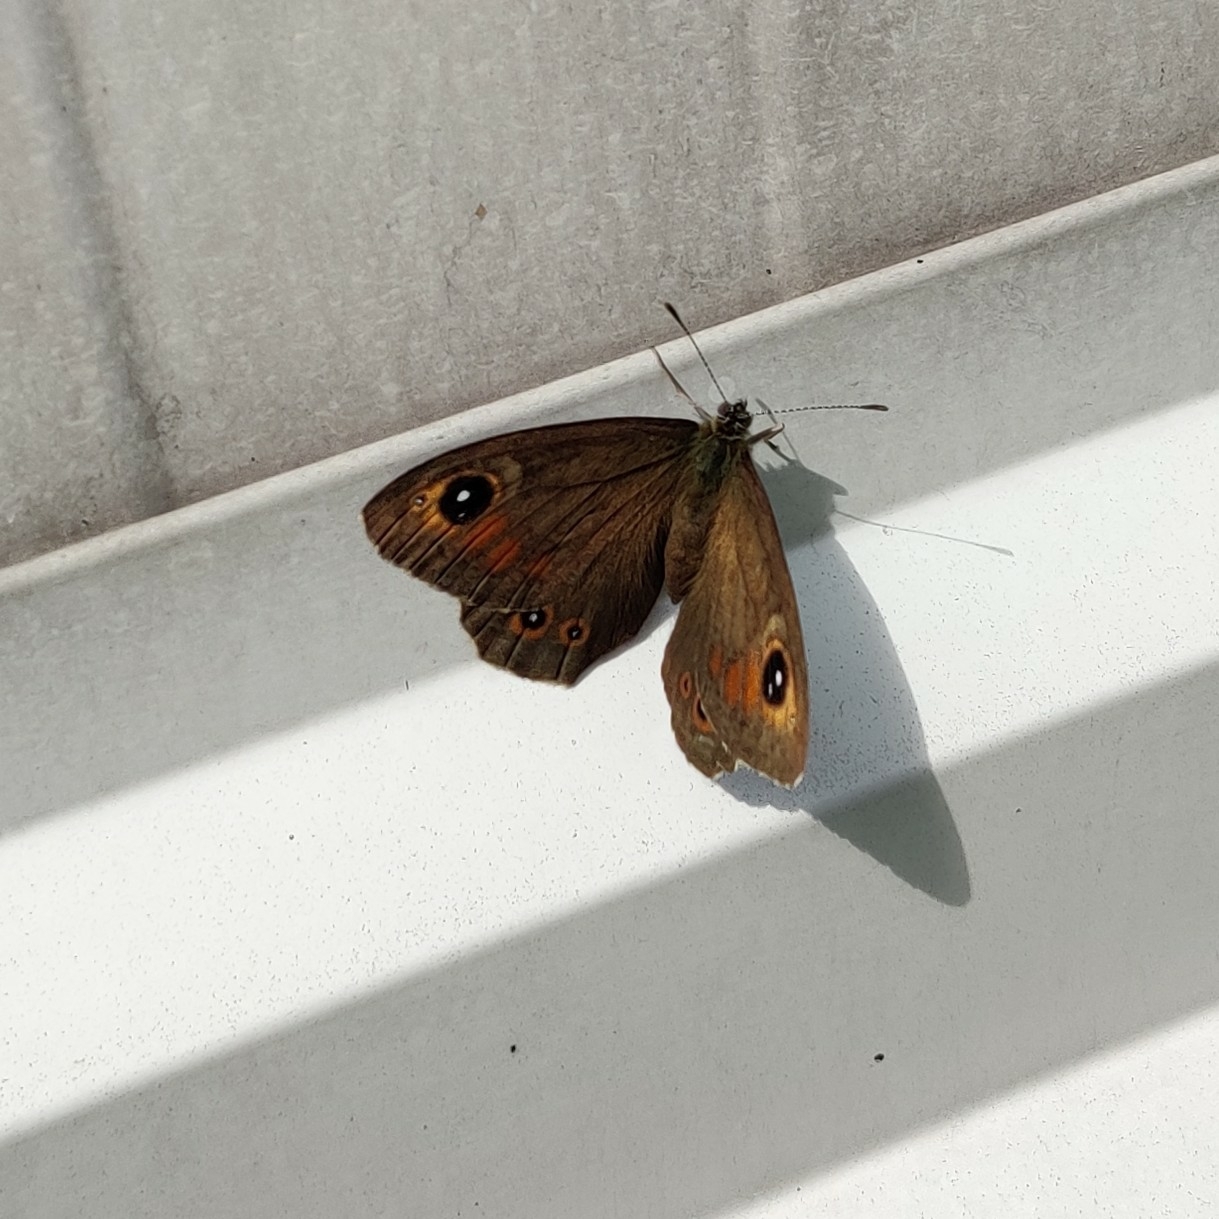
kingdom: Animalia
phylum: Arthropoda
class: Insecta
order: Lepidoptera
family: Nymphalidae
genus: Pararge
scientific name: Pararge Lasiommata maera
